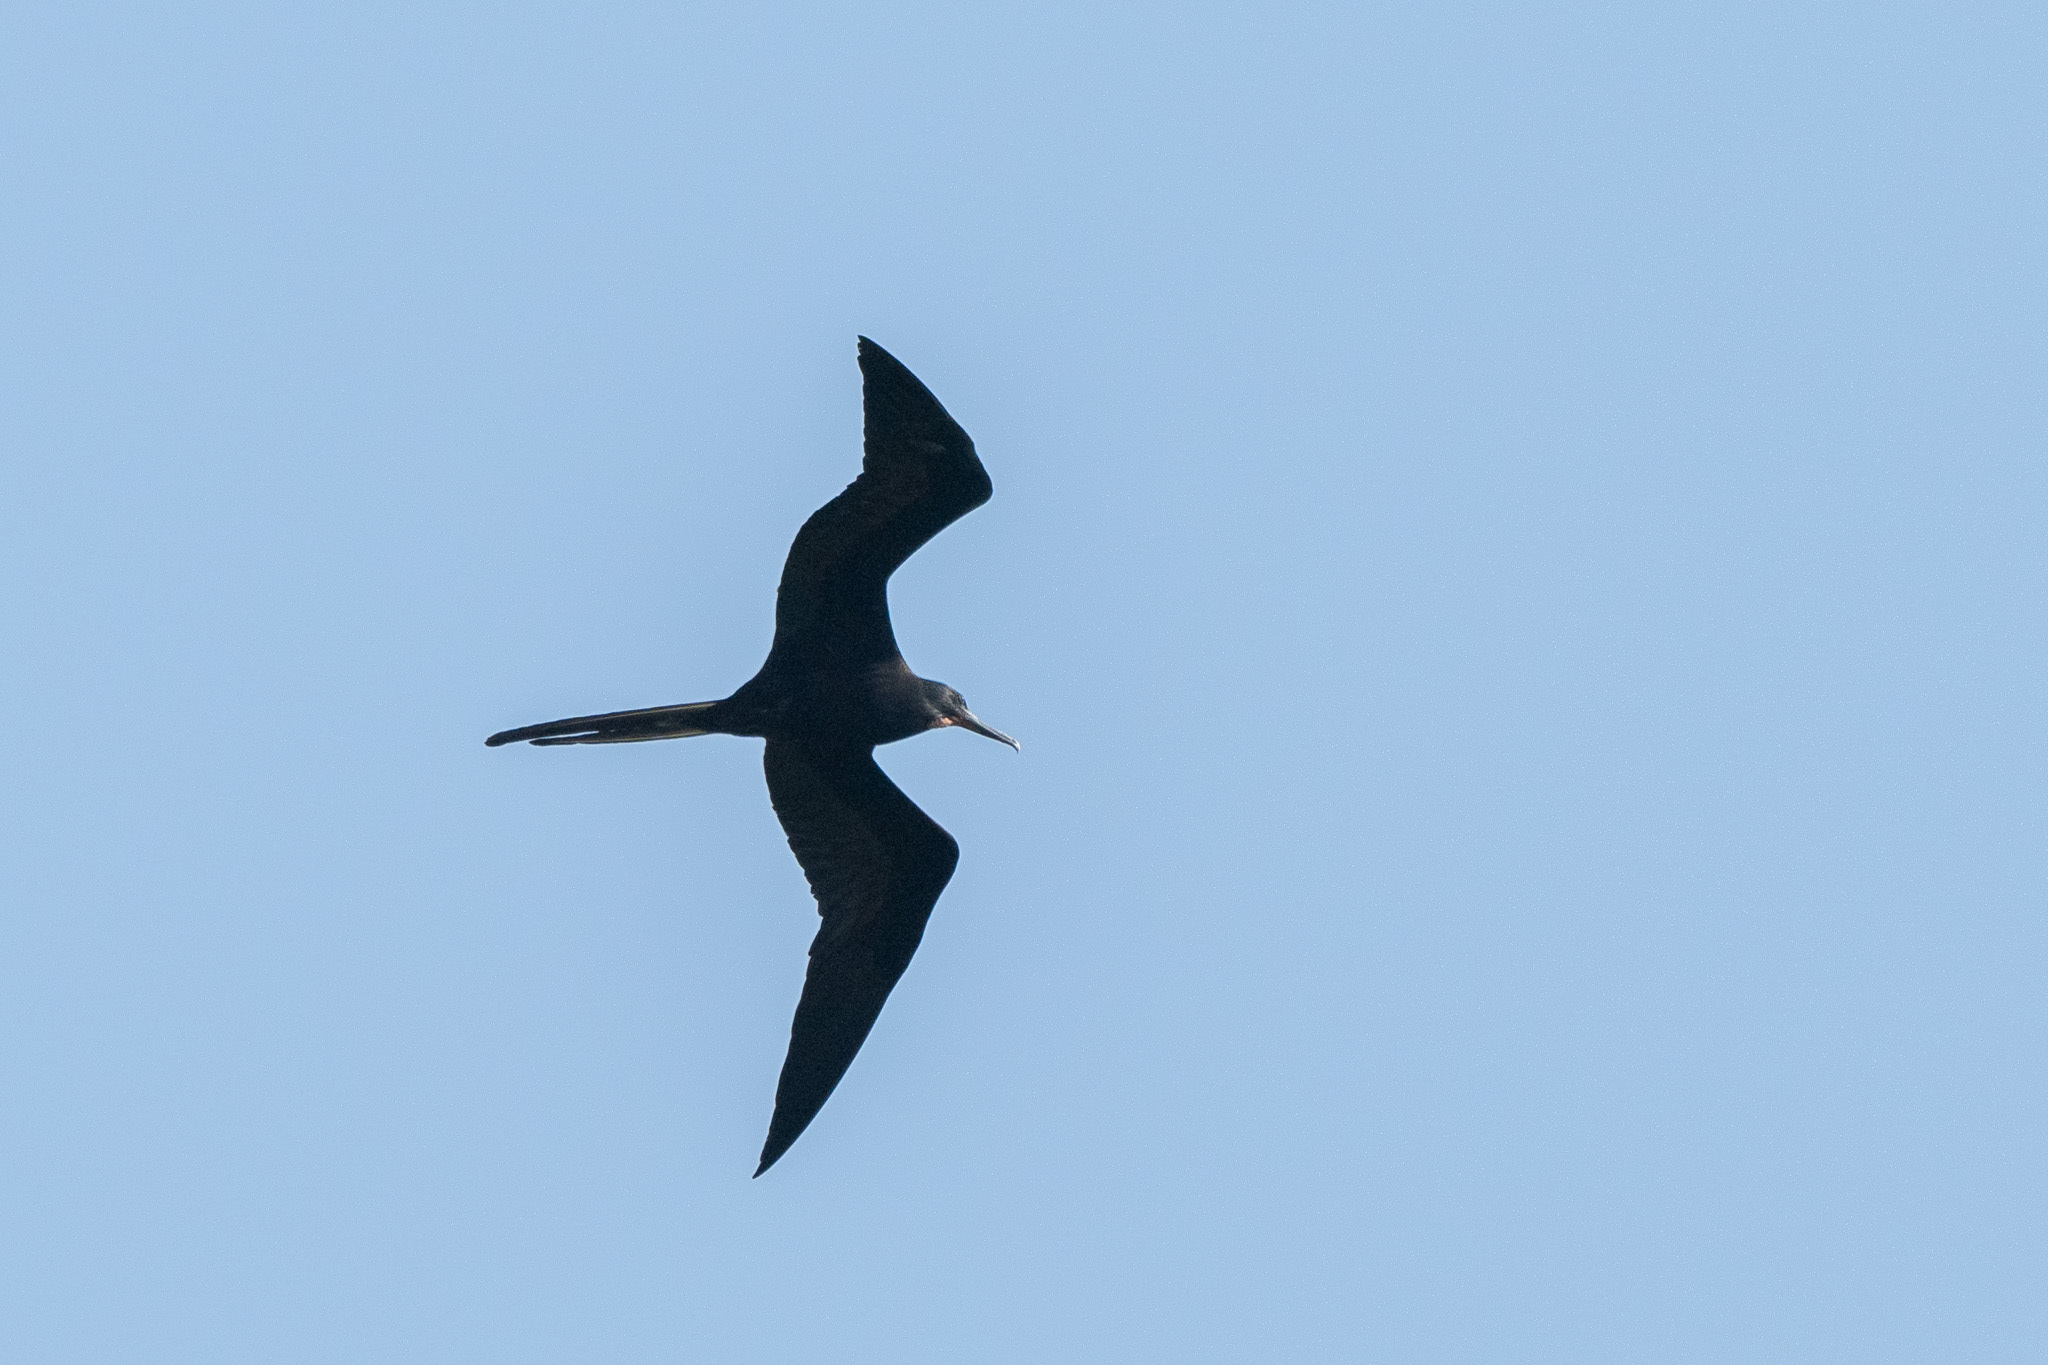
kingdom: Animalia
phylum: Chordata
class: Aves
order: Suliformes
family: Fregatidae
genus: Fregata
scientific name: Fregata magnificens
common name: Magnificent frigatebird
